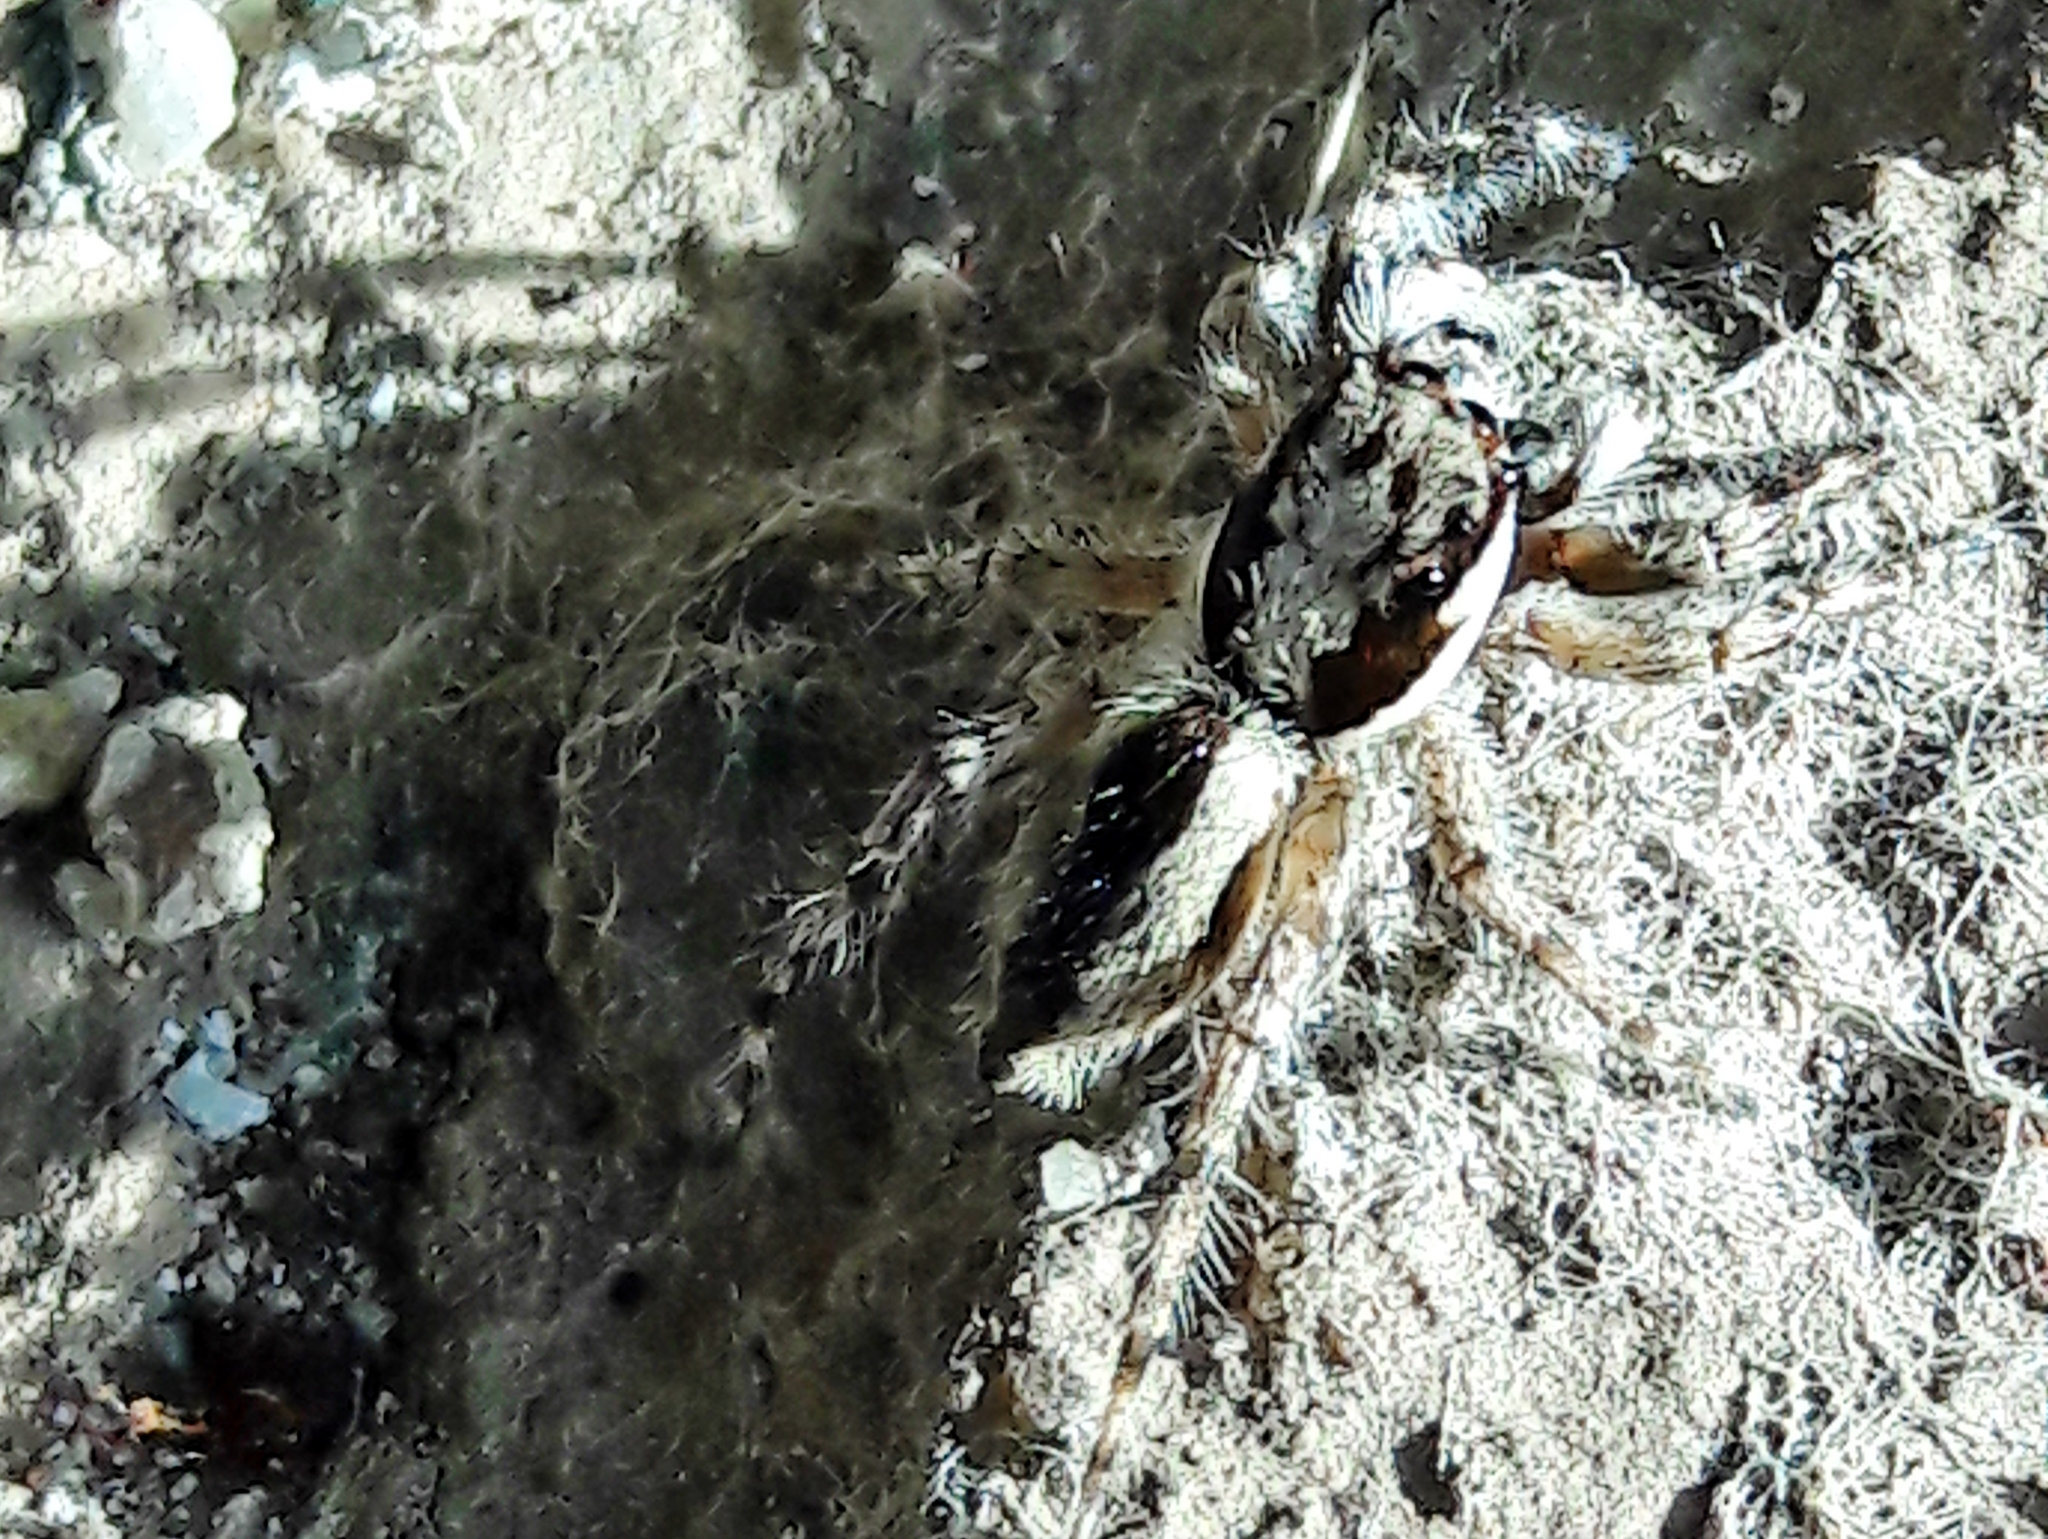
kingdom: Animalia
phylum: Arthropoda
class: Arachnida
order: Araneae
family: Salticidae
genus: Menemerus
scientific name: Menemerus bivittatus
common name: Gray wall jumper
